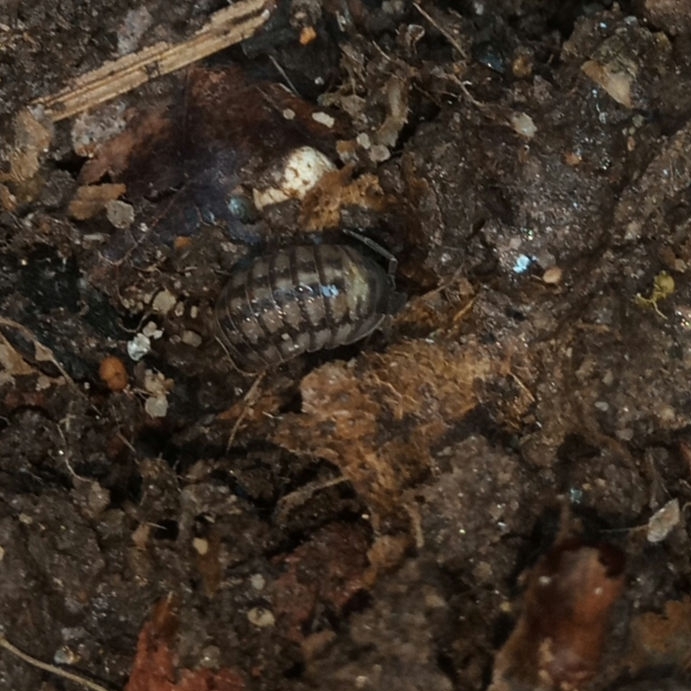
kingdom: Animalia
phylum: Arthropoda
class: Malacostraca
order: Isopoda
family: Armadillidiidae
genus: Armadillidium
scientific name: Armadillidium nasatum
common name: Isopod
